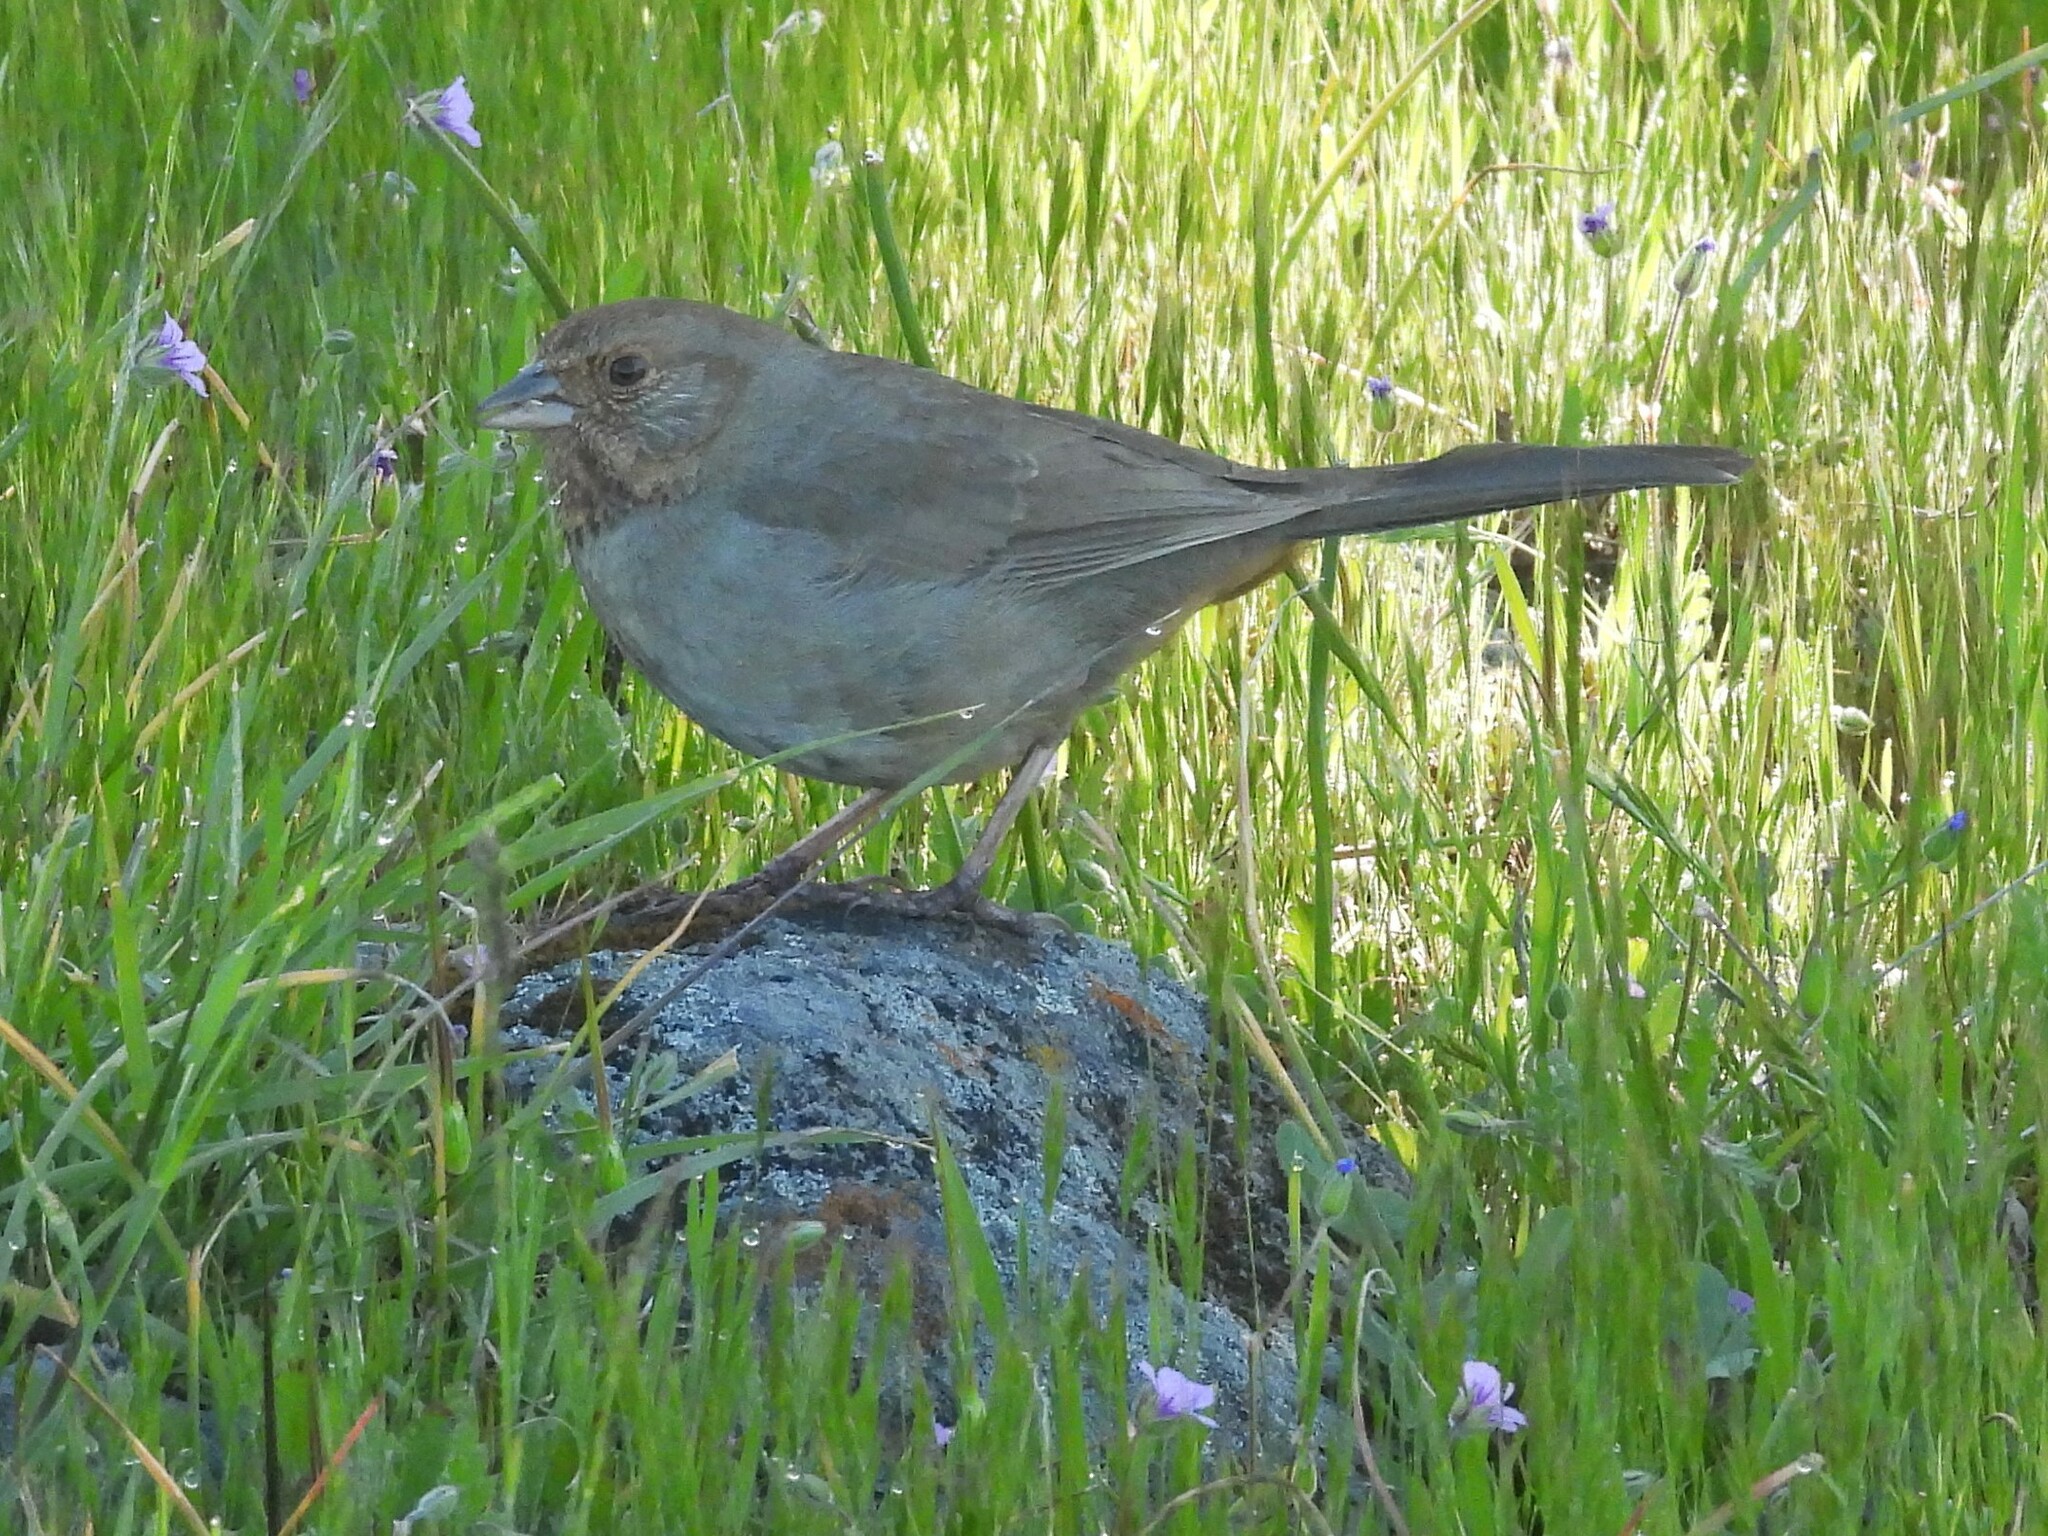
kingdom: Animalia
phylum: Chordata
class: Aves
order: Passeriformes
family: Passerellidae
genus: Melozone
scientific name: Melozone crissalis
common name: California towhee
